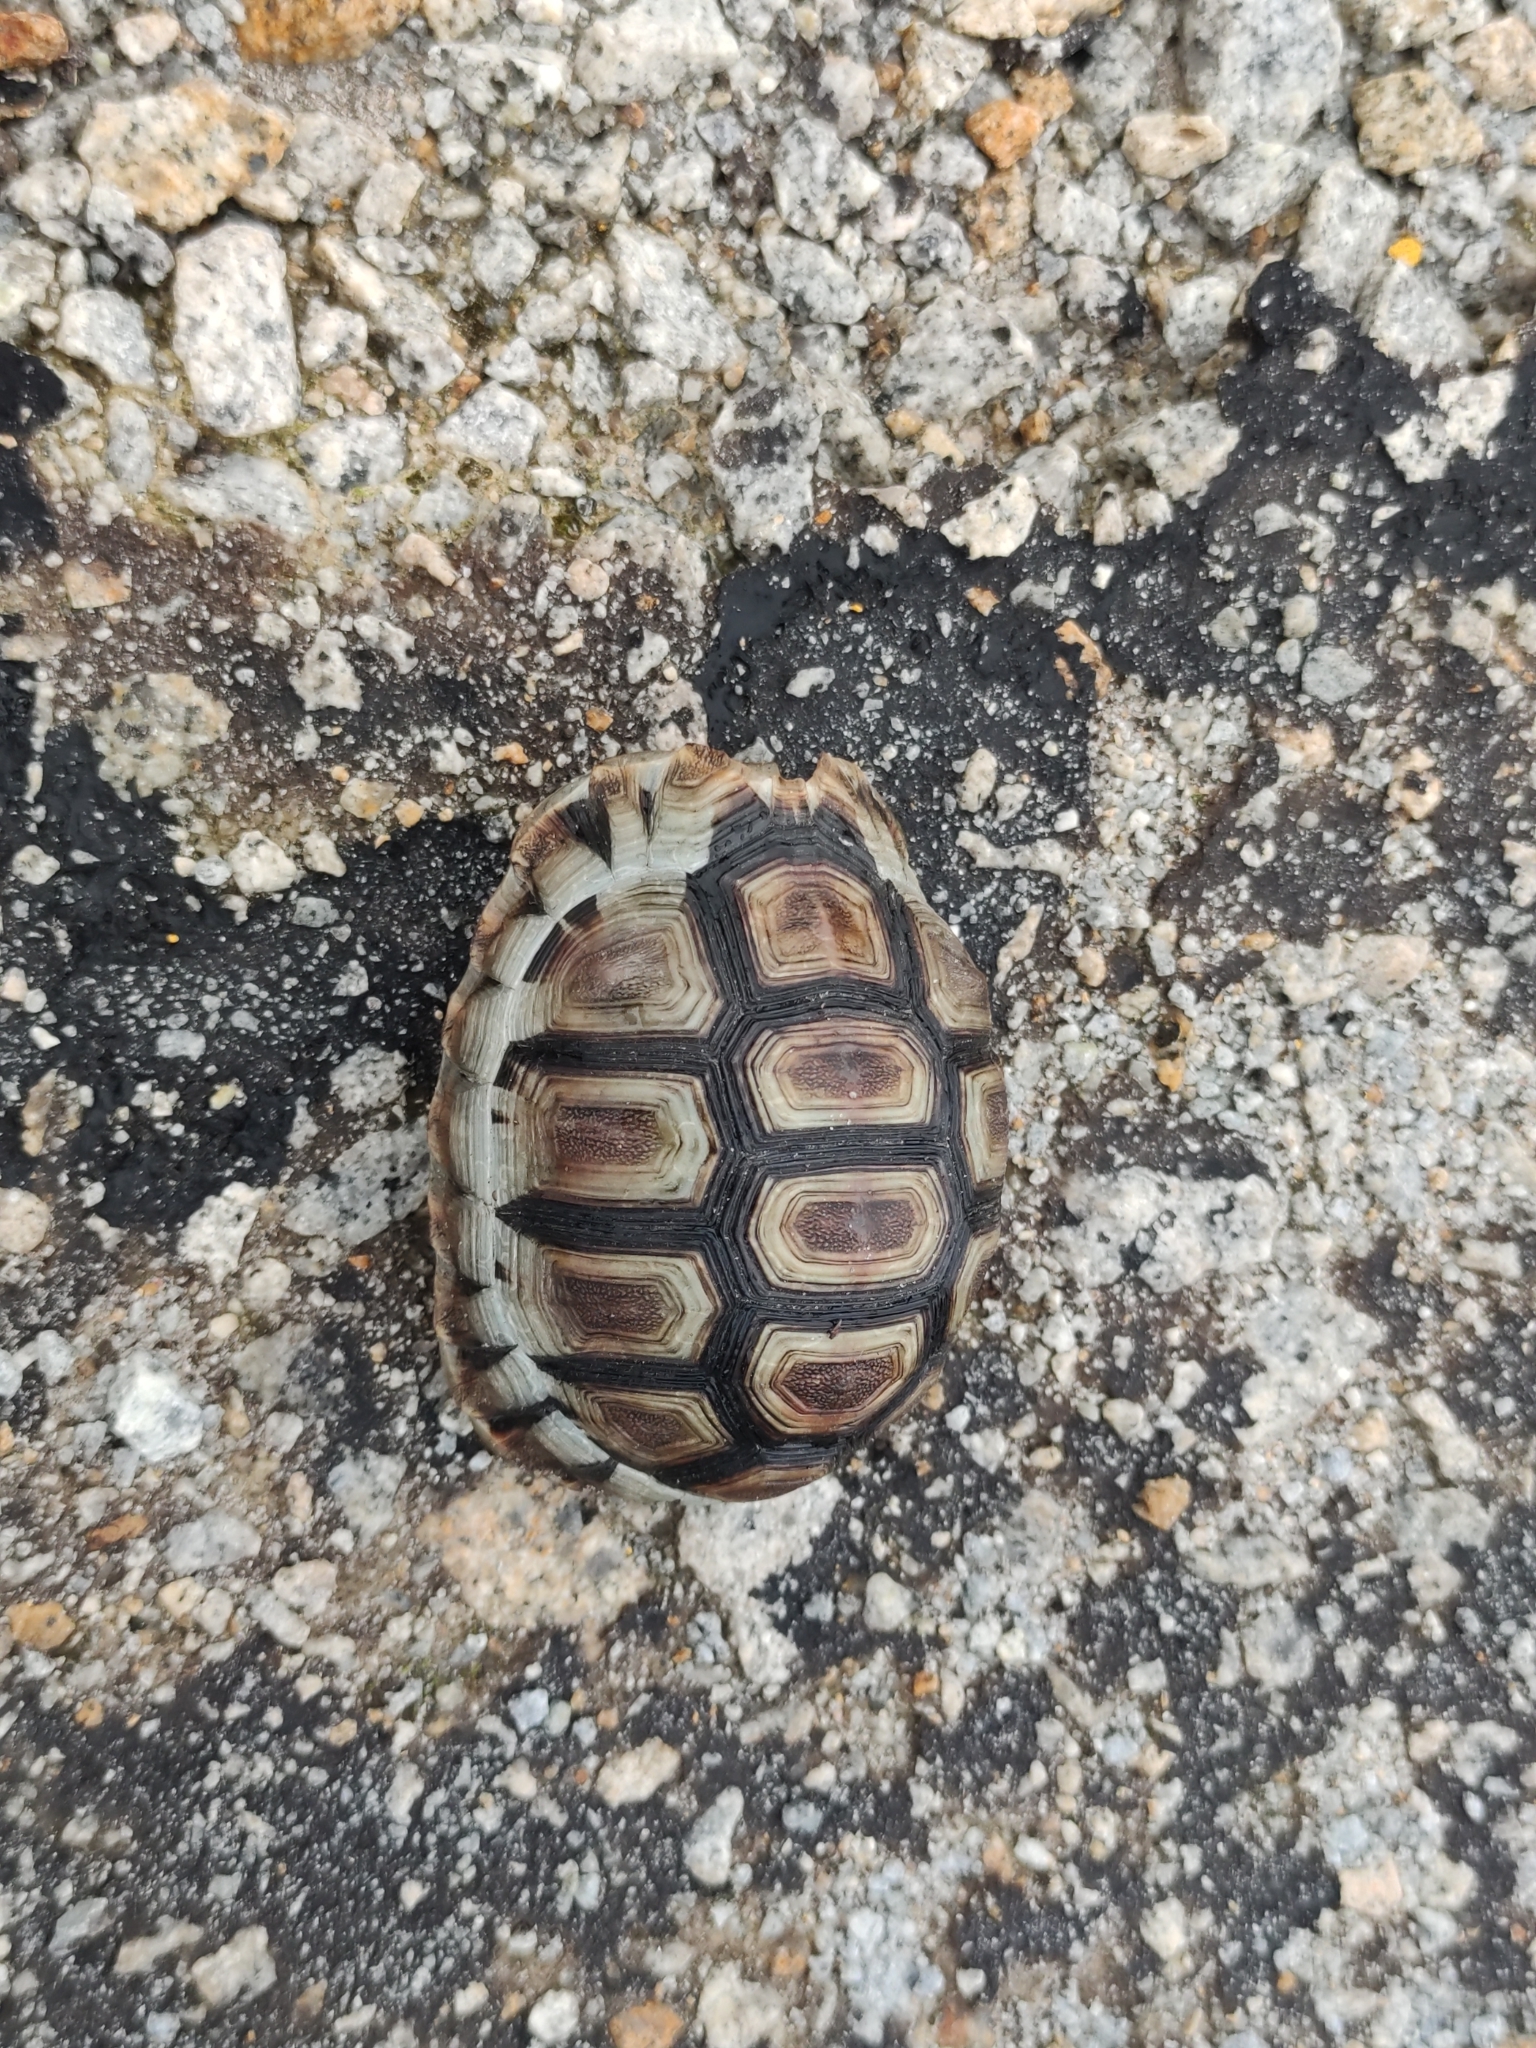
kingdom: Animalia
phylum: Chordata
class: Testudines
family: Testudinidae
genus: Chersina
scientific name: Chersina angulata
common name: South african bowsprit tortoise
